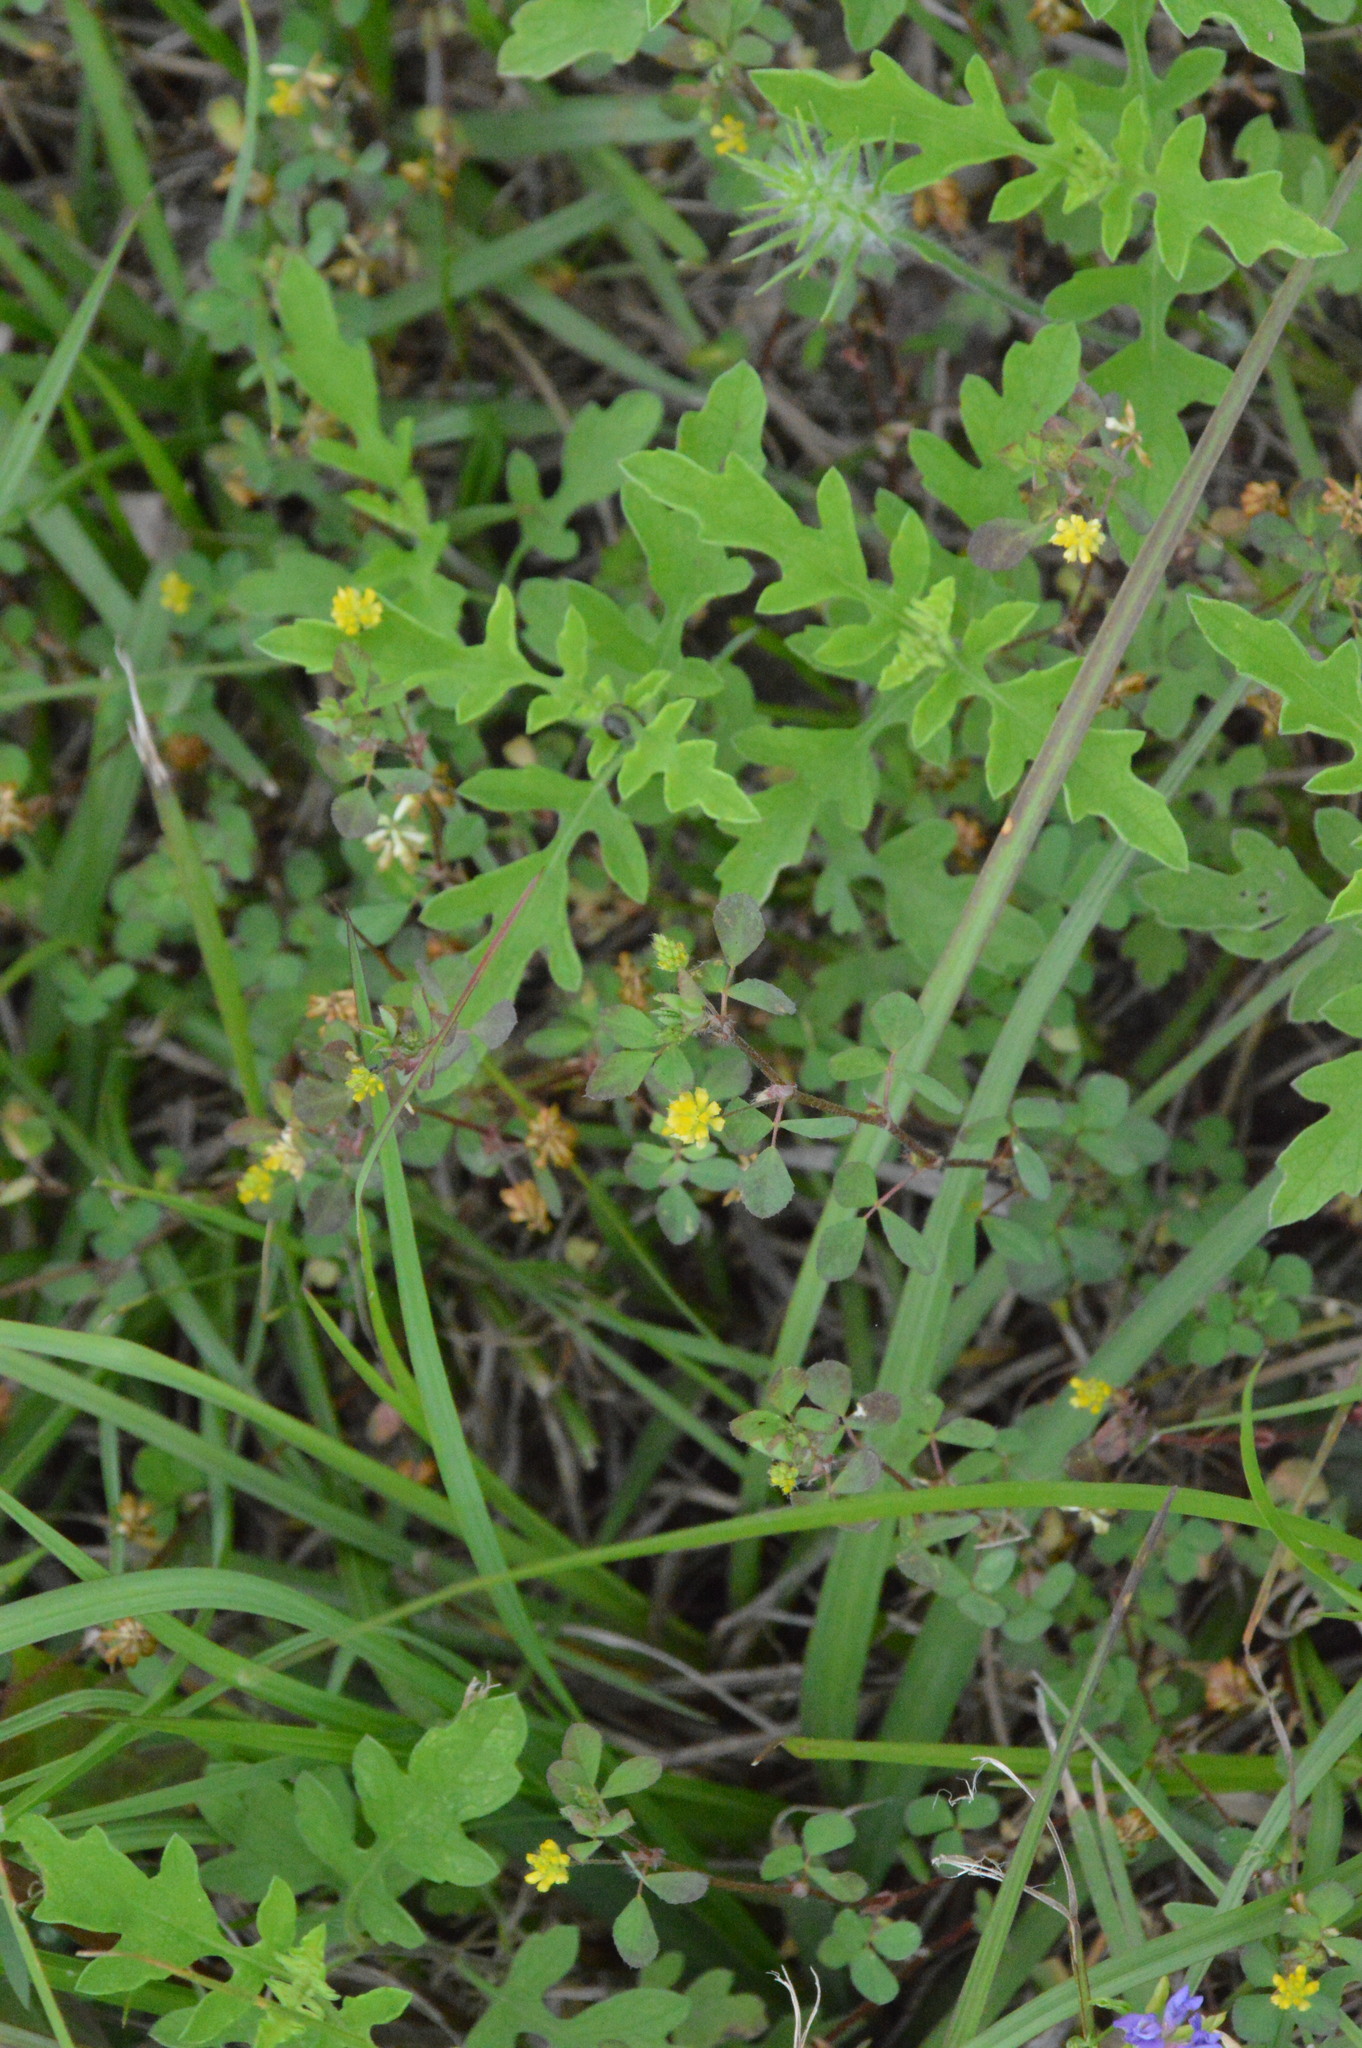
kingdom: Plantae
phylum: Tracheophyta
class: Magnoliopsida
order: Fabales
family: Fabaceae
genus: Trifolium
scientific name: Trifolium dubium
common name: Suckling clover
